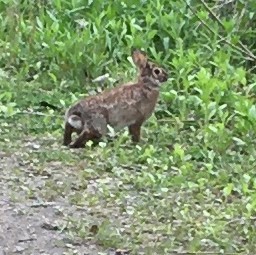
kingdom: Animalia
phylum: Chordata
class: Mammalia
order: Lagomorpha
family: Leporidae
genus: Sylvilagus
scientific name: Sylvilagus floridanus
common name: Eastern cottontail
